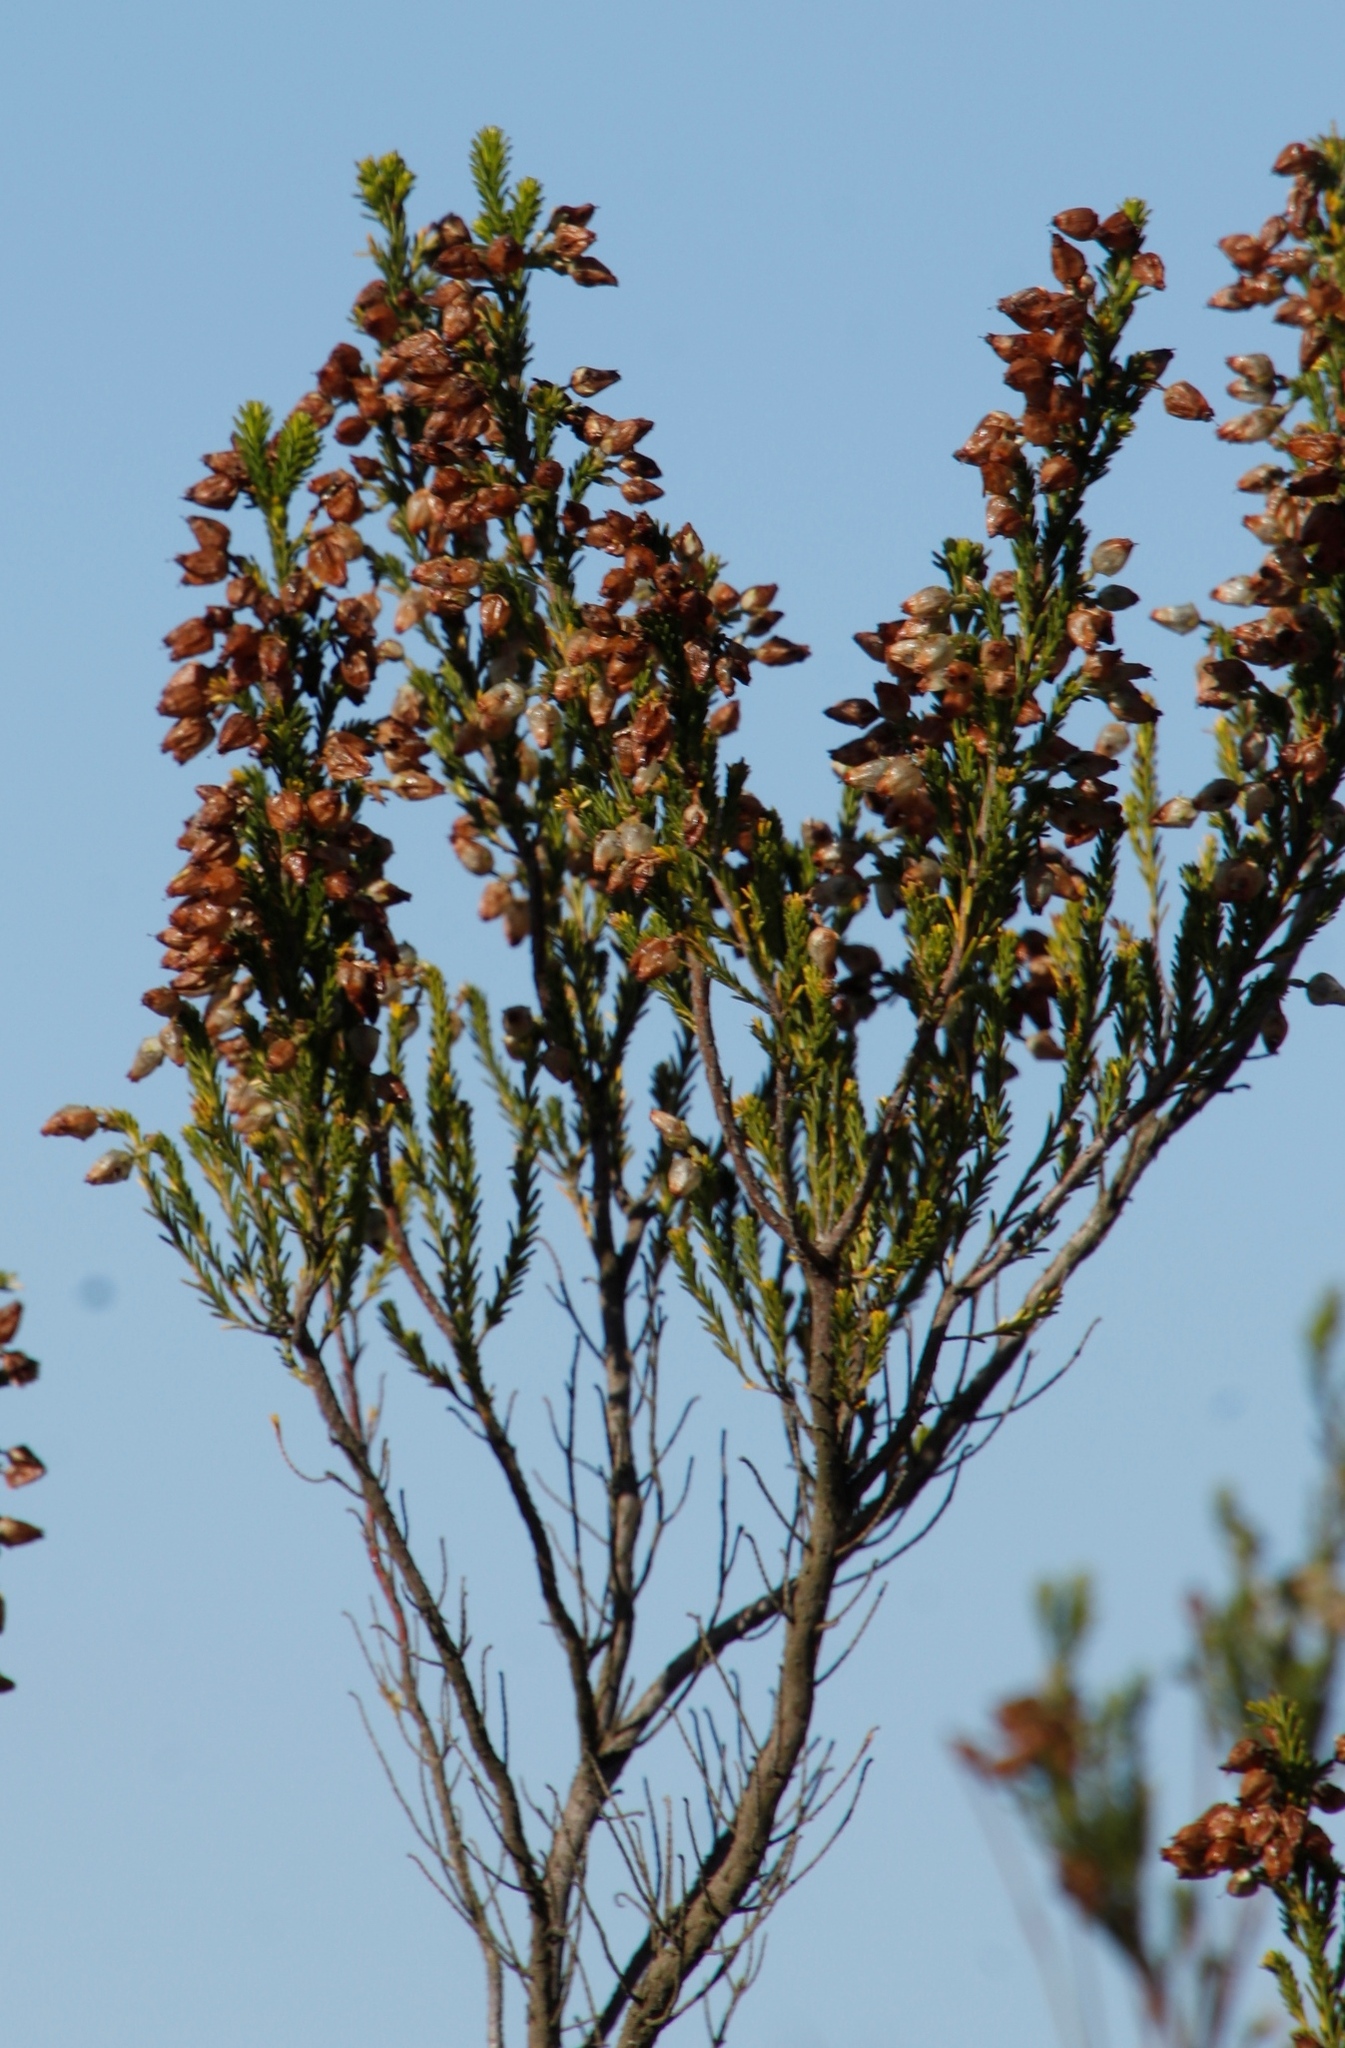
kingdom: Plantae
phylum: Tracheophyta
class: Magnoliopsida
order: Ericales
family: Ericaceae
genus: Erica
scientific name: Erica physodes
